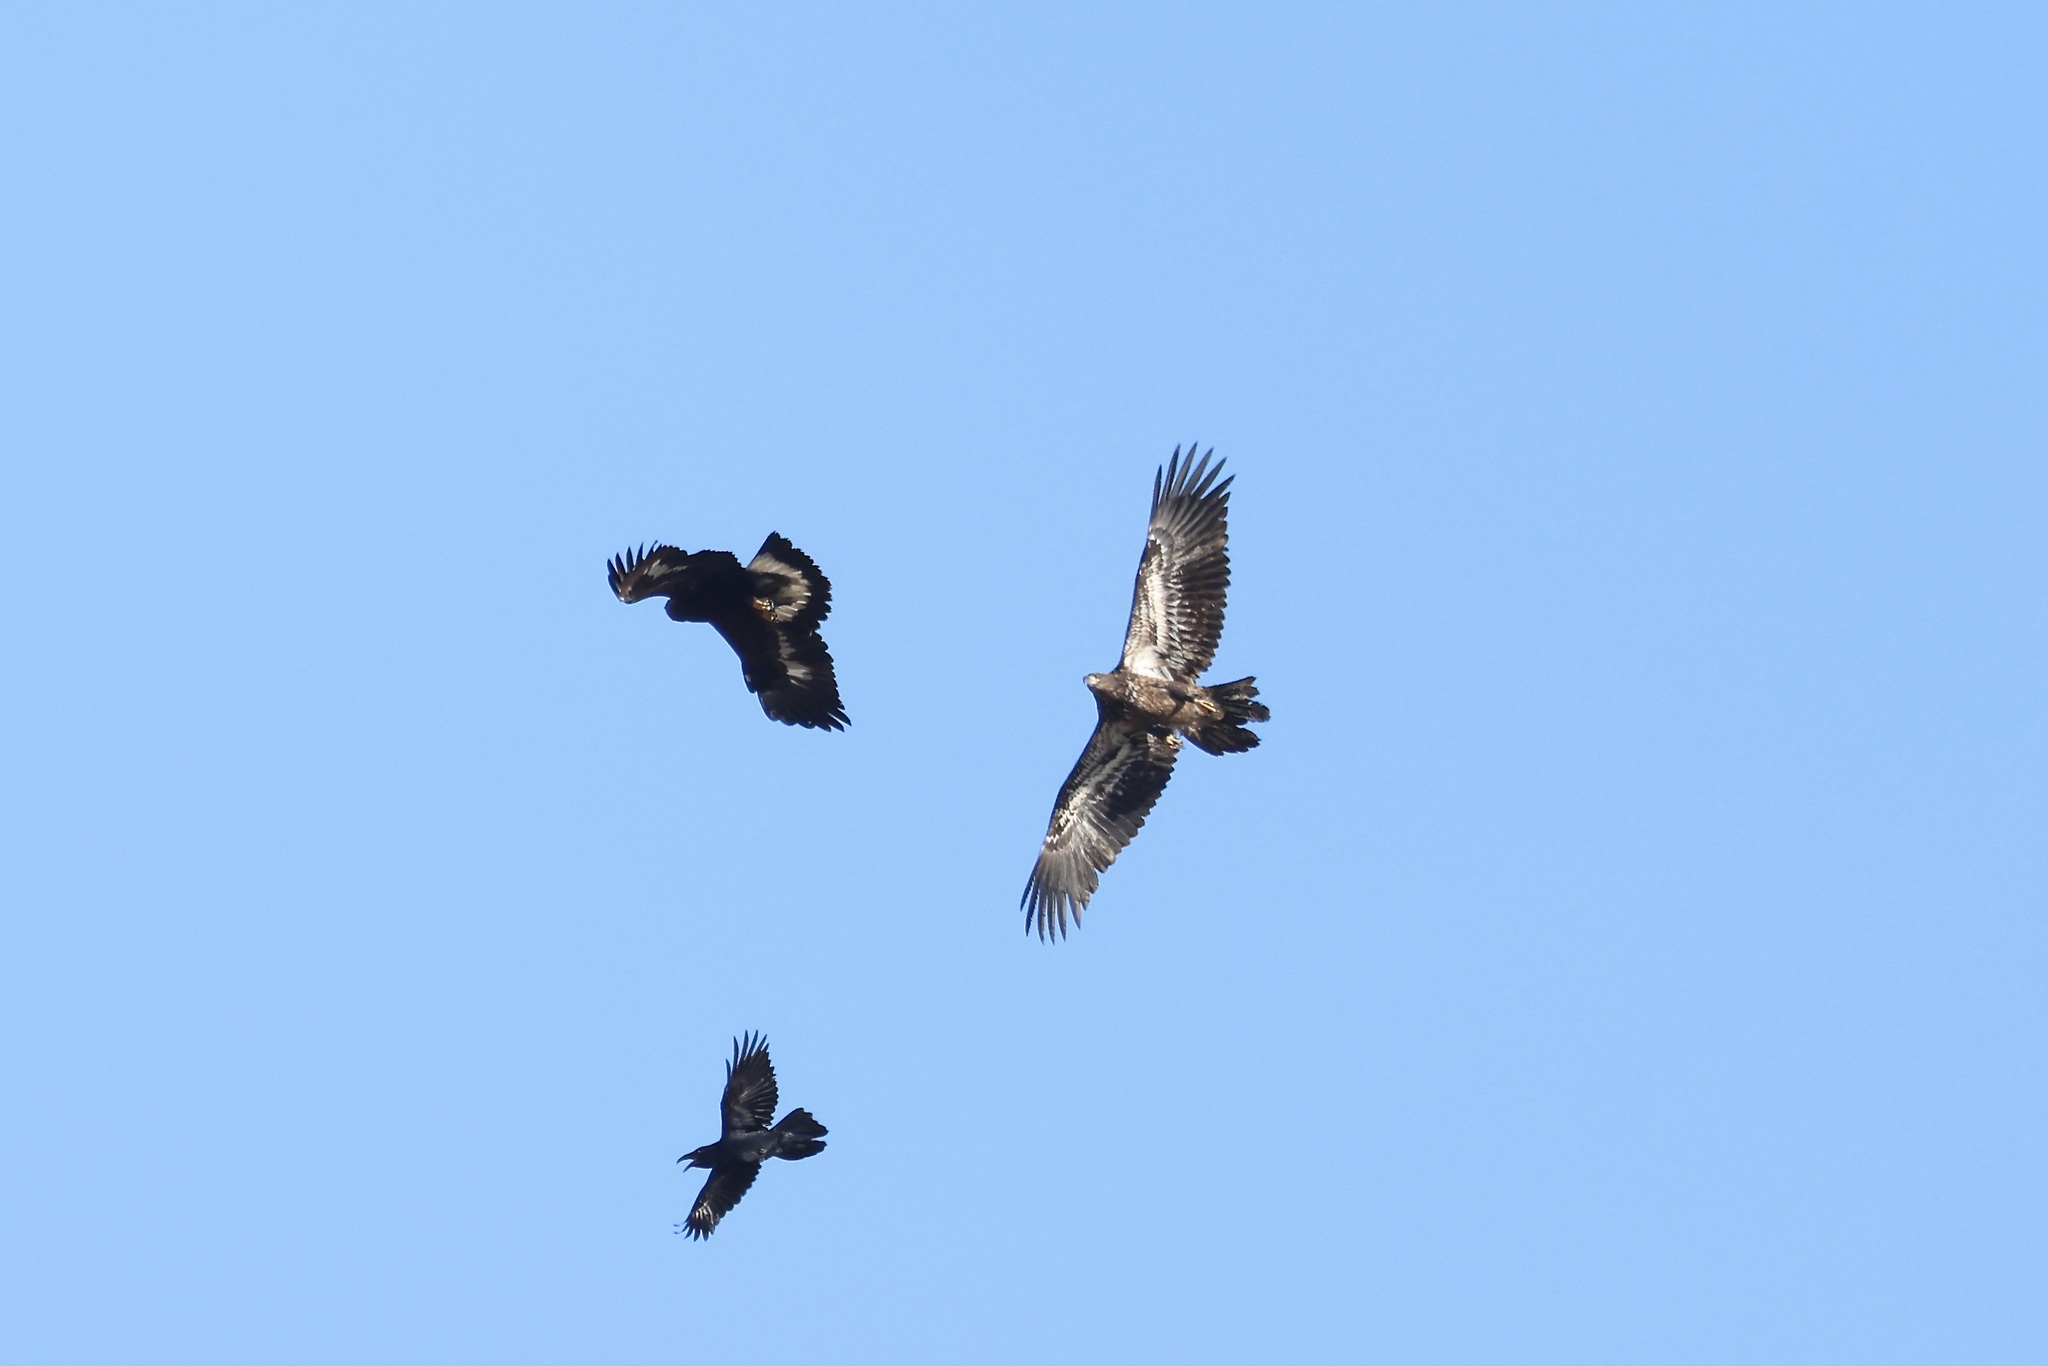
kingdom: Animalia
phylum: Chordata
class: Aves
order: Accipitriformes
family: Accipitridae
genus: Haliaeetus
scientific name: Haliaeetus leucocephalus
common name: Bald eagle
